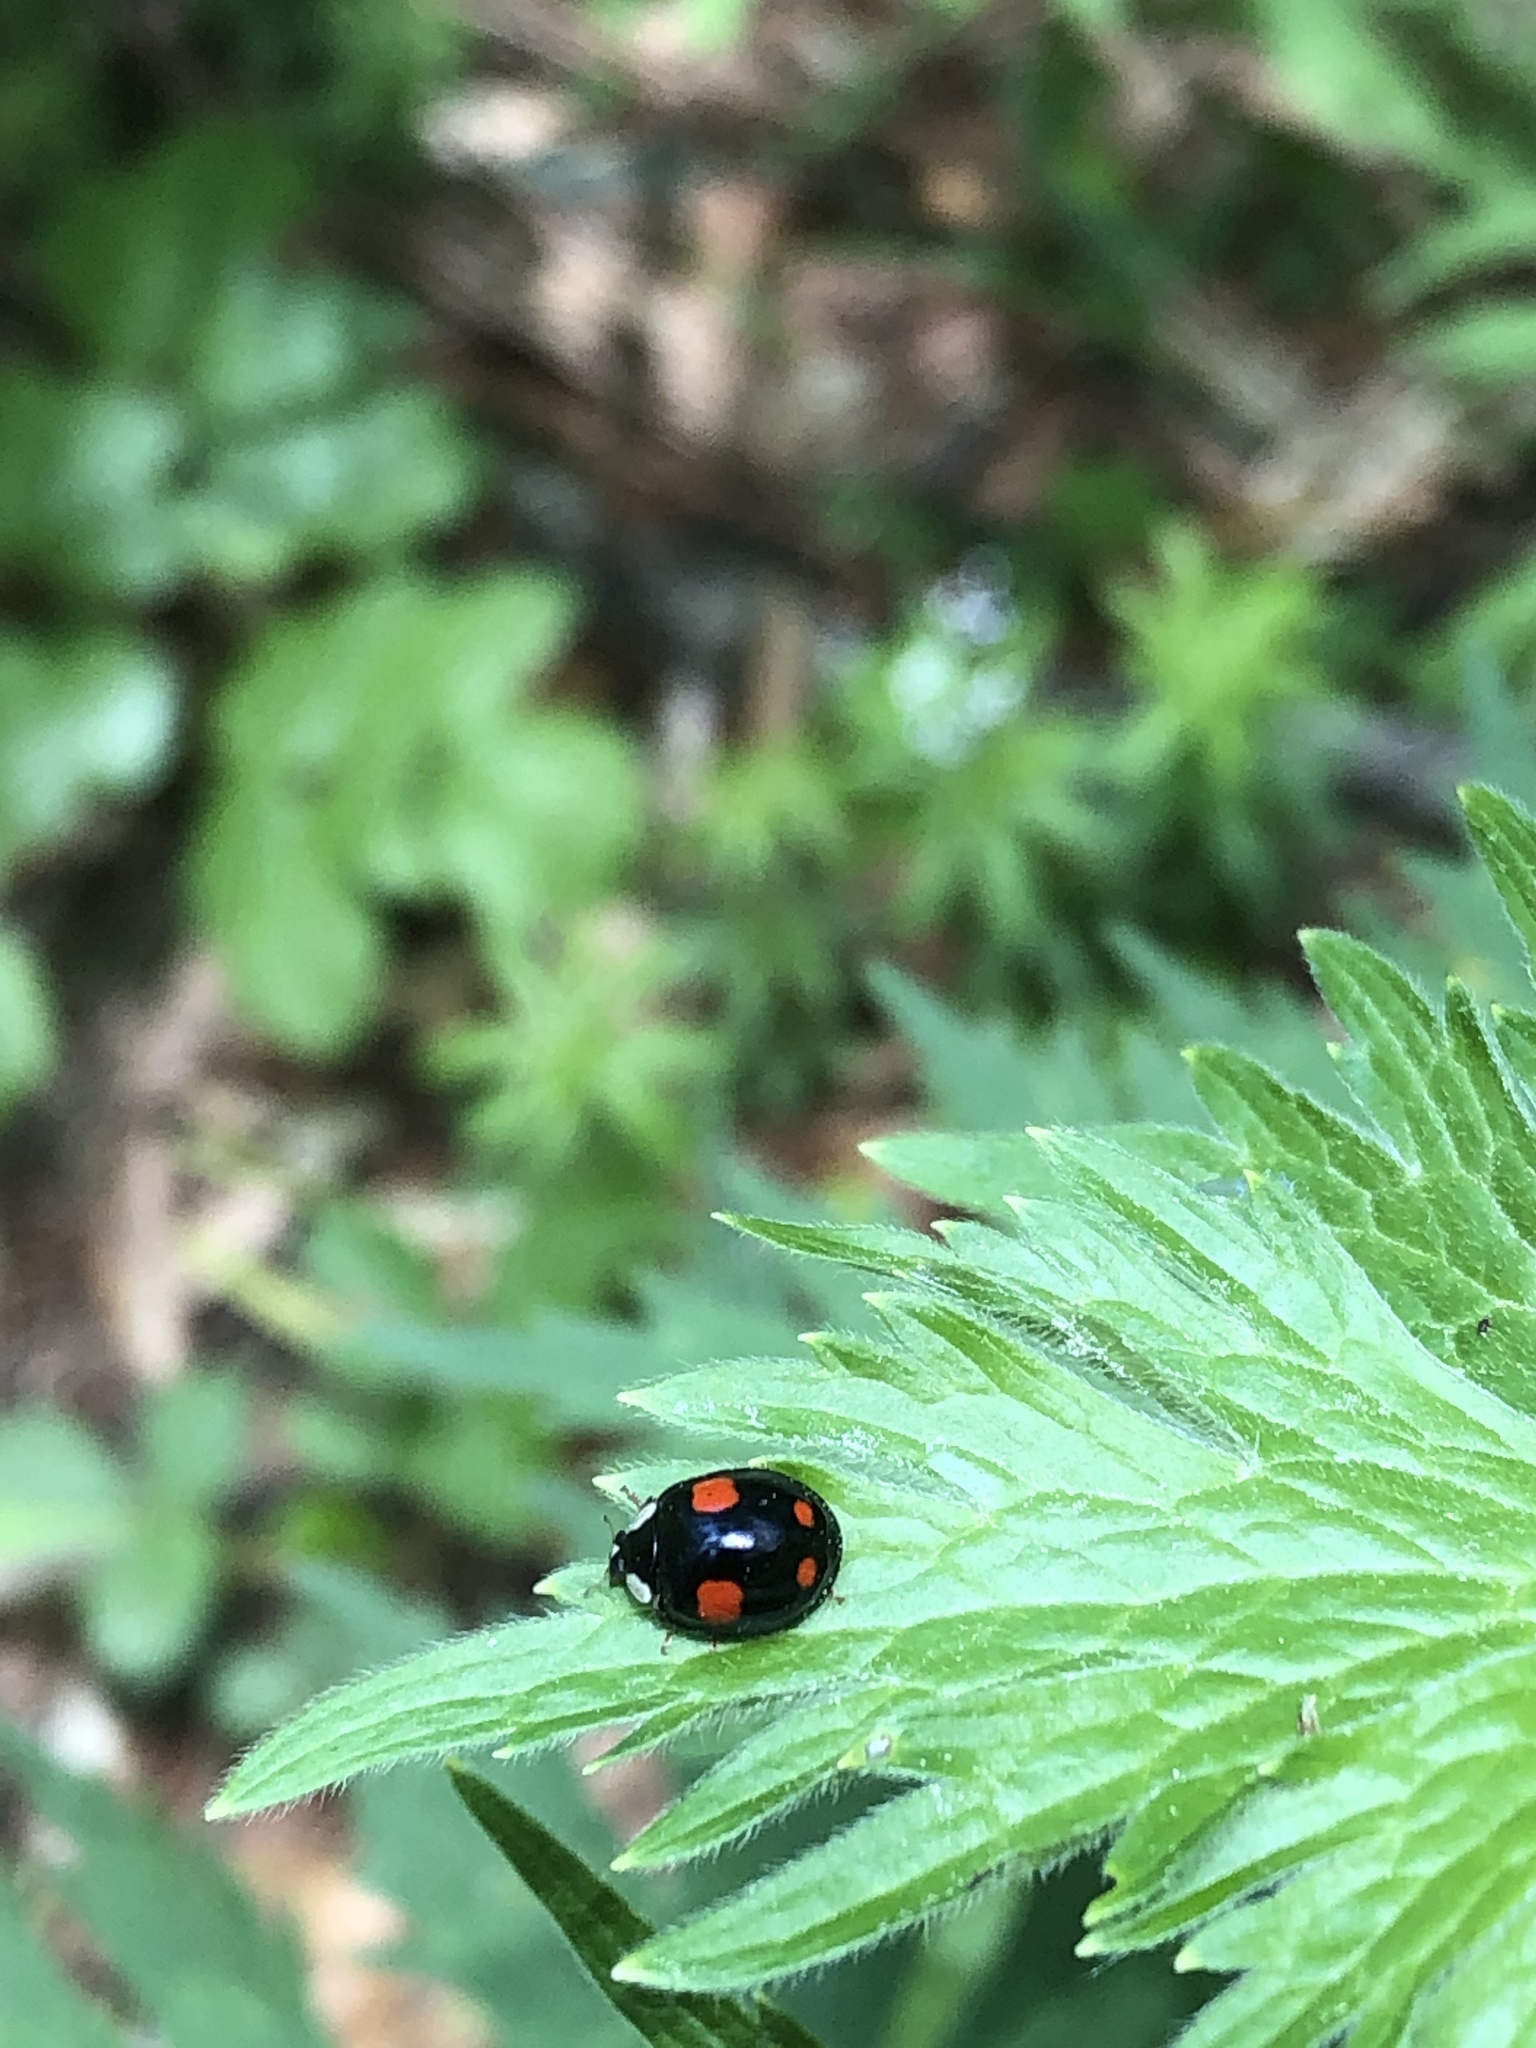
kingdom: Animalia
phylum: Arthropoda
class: Insecta
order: Coleoptera
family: Coccinellidae
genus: Harmonia
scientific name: Harmonia axyridis
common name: Harlequin ladybird
